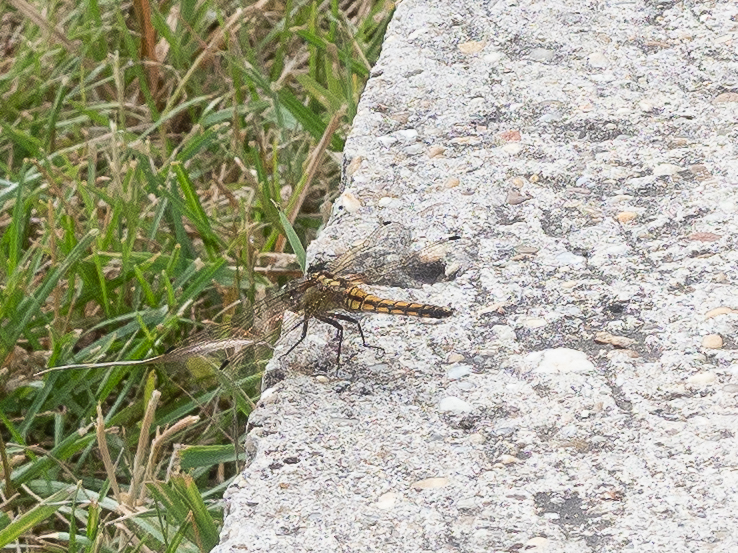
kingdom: Animalia
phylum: Arthropoda
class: Insecta
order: Odonata
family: Libellulidae
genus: Orthetrum
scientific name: Orthetrum cancellatum
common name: Black-tailed skimmer
